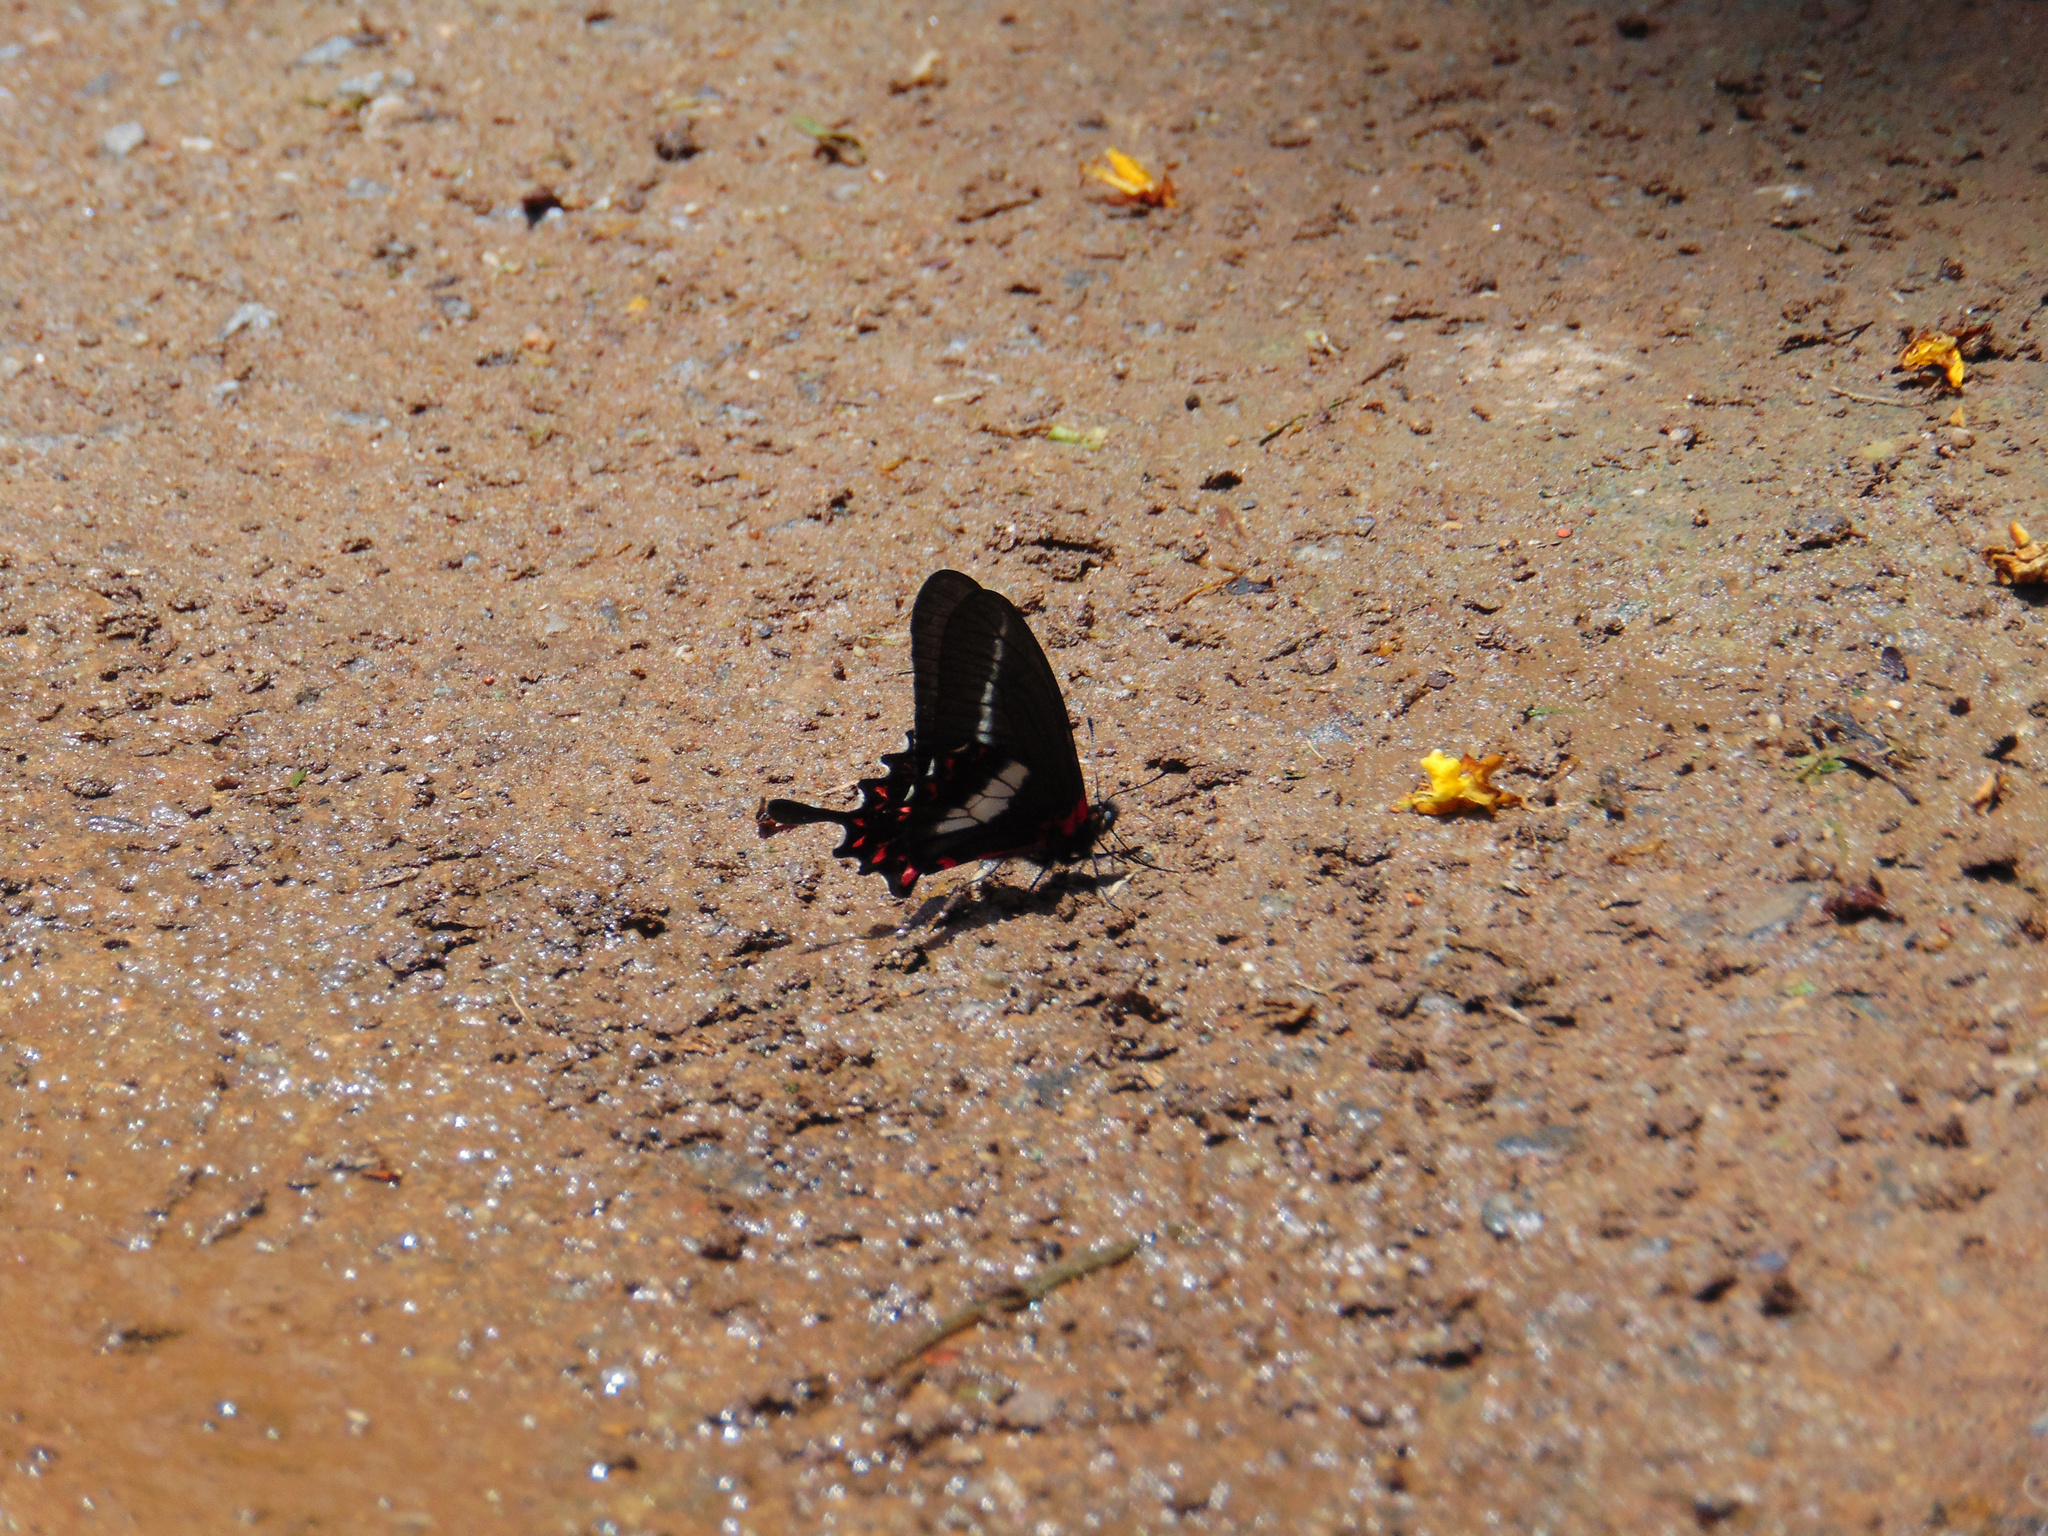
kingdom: Animalia
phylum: Arthropoda
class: Insecta
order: Lepidoptera
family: Papilionidae
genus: Mimoides
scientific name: Mimoides lysithous
